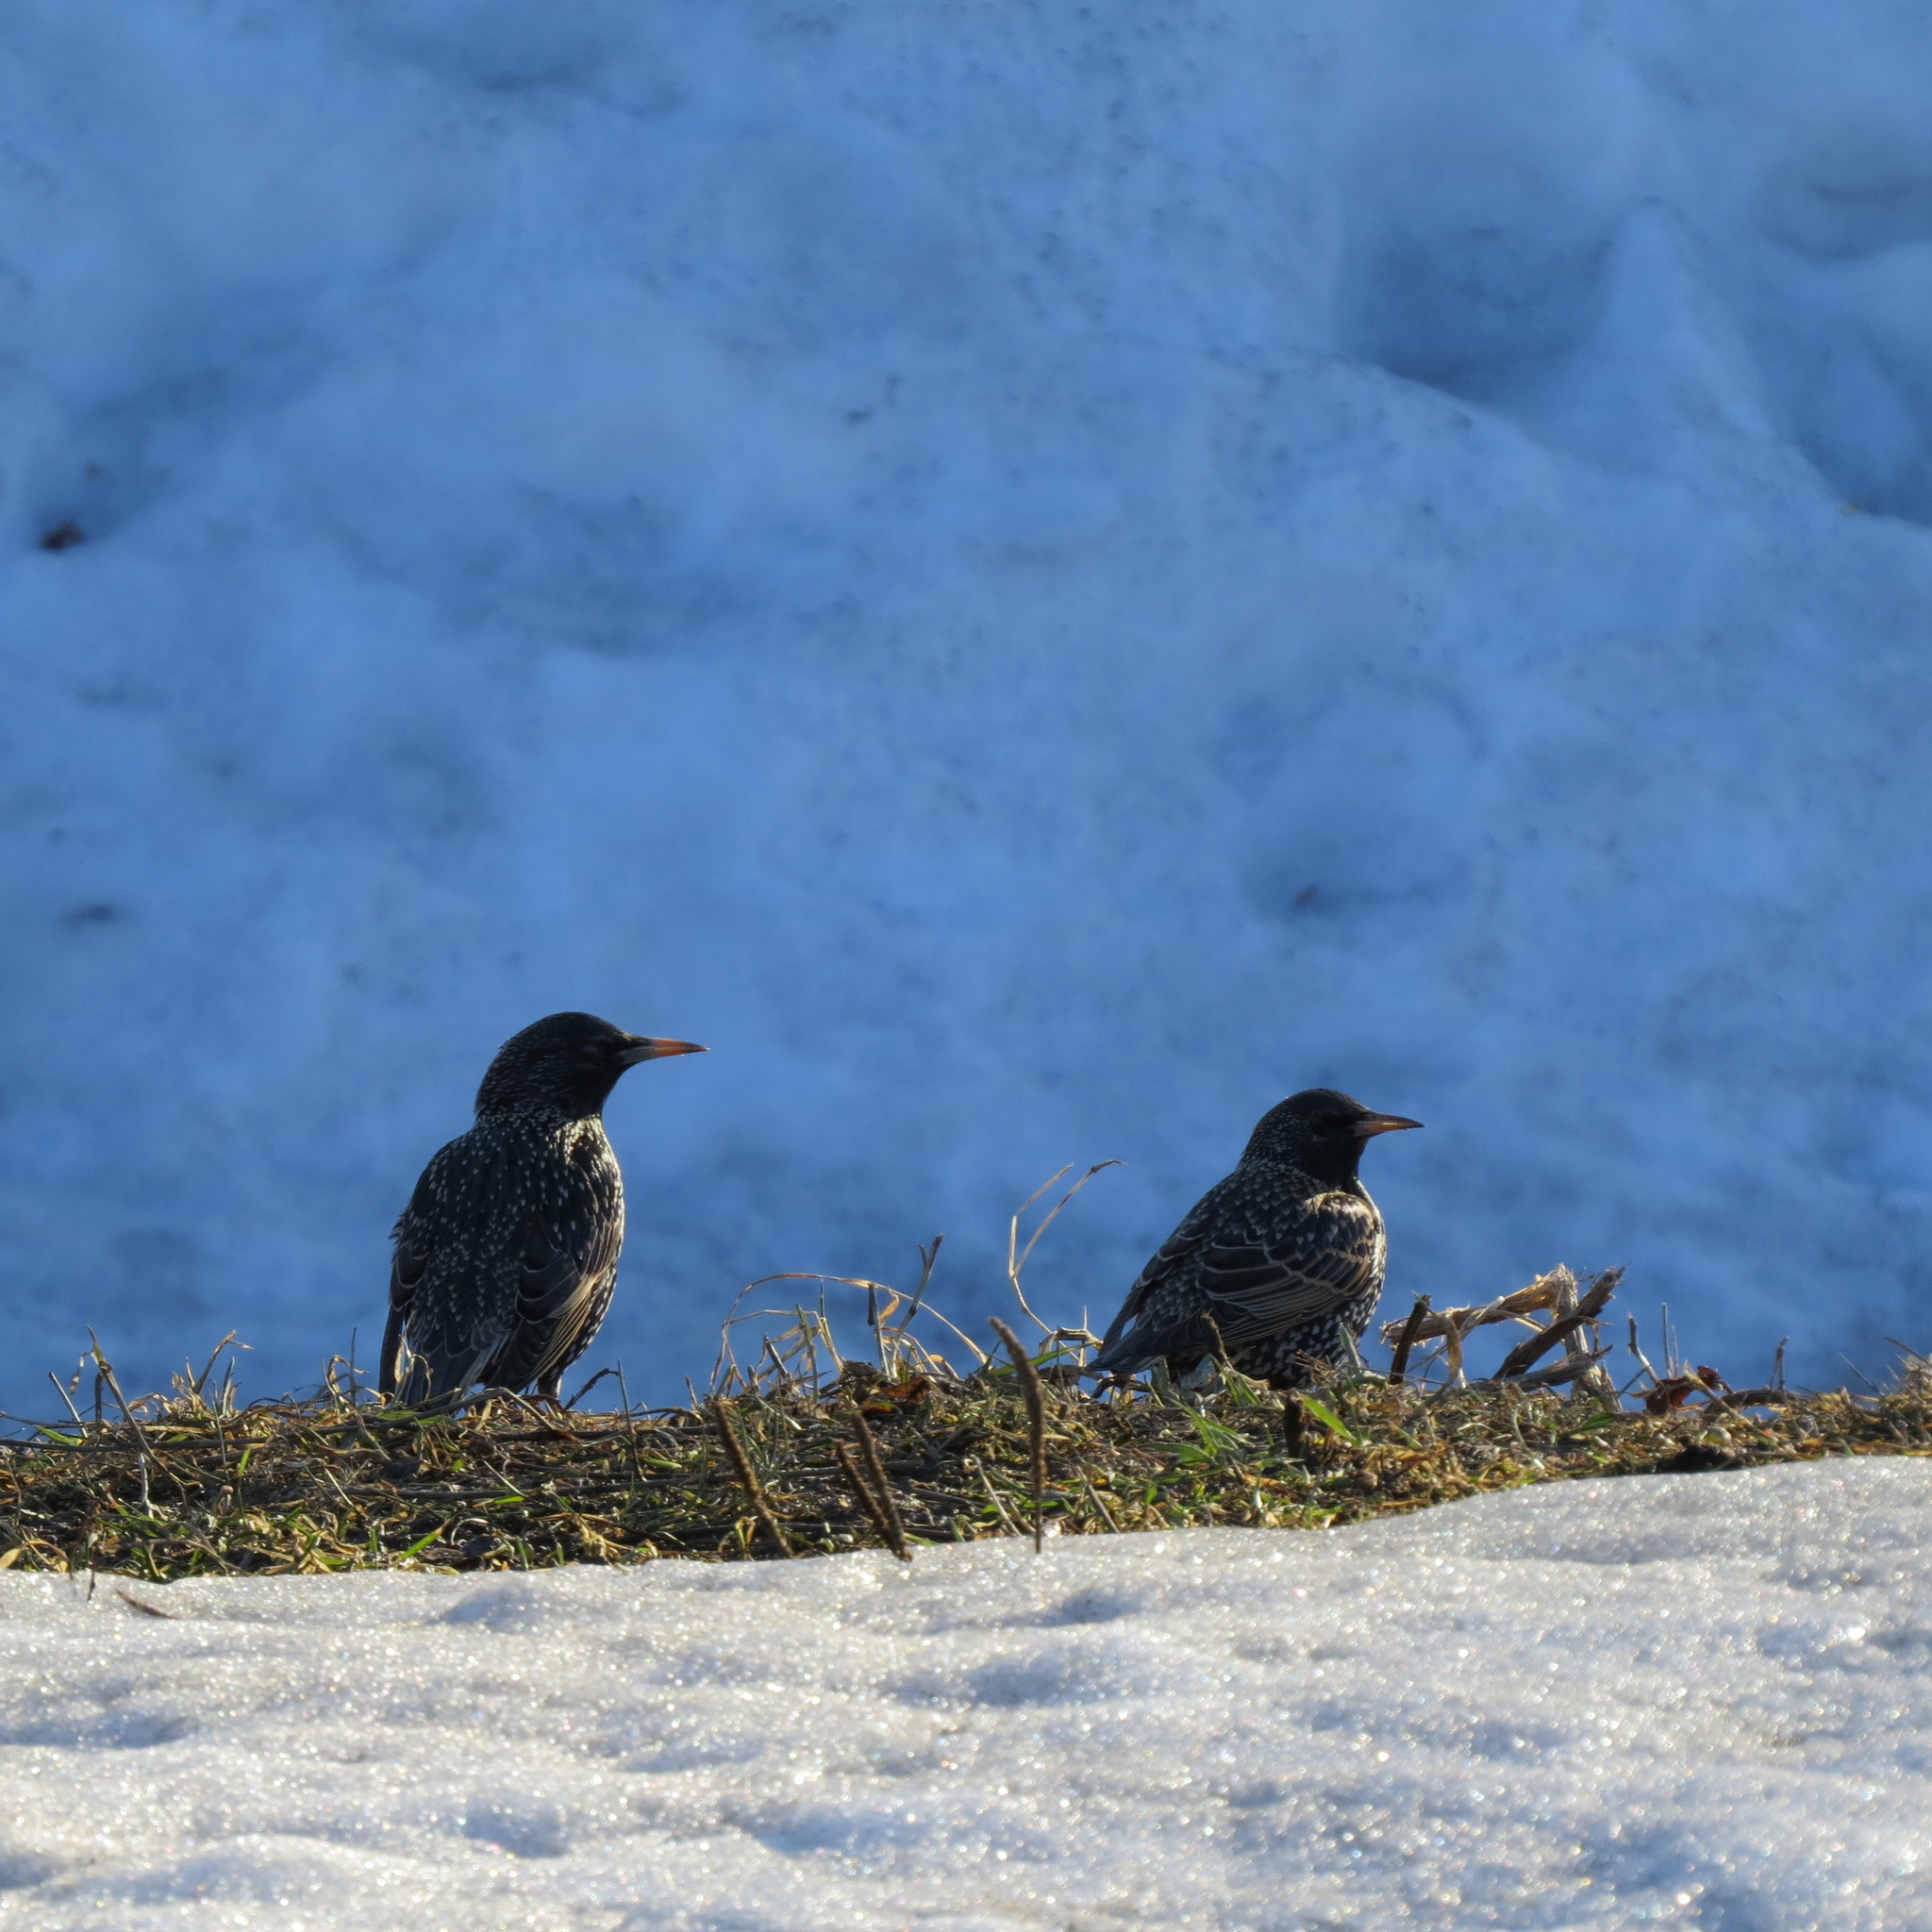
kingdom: Animalia
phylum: Chordata
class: Aves
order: Passeriformes
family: Sturnidae
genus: Sturnus
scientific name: Sturnus vulgaris
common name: Common starling
